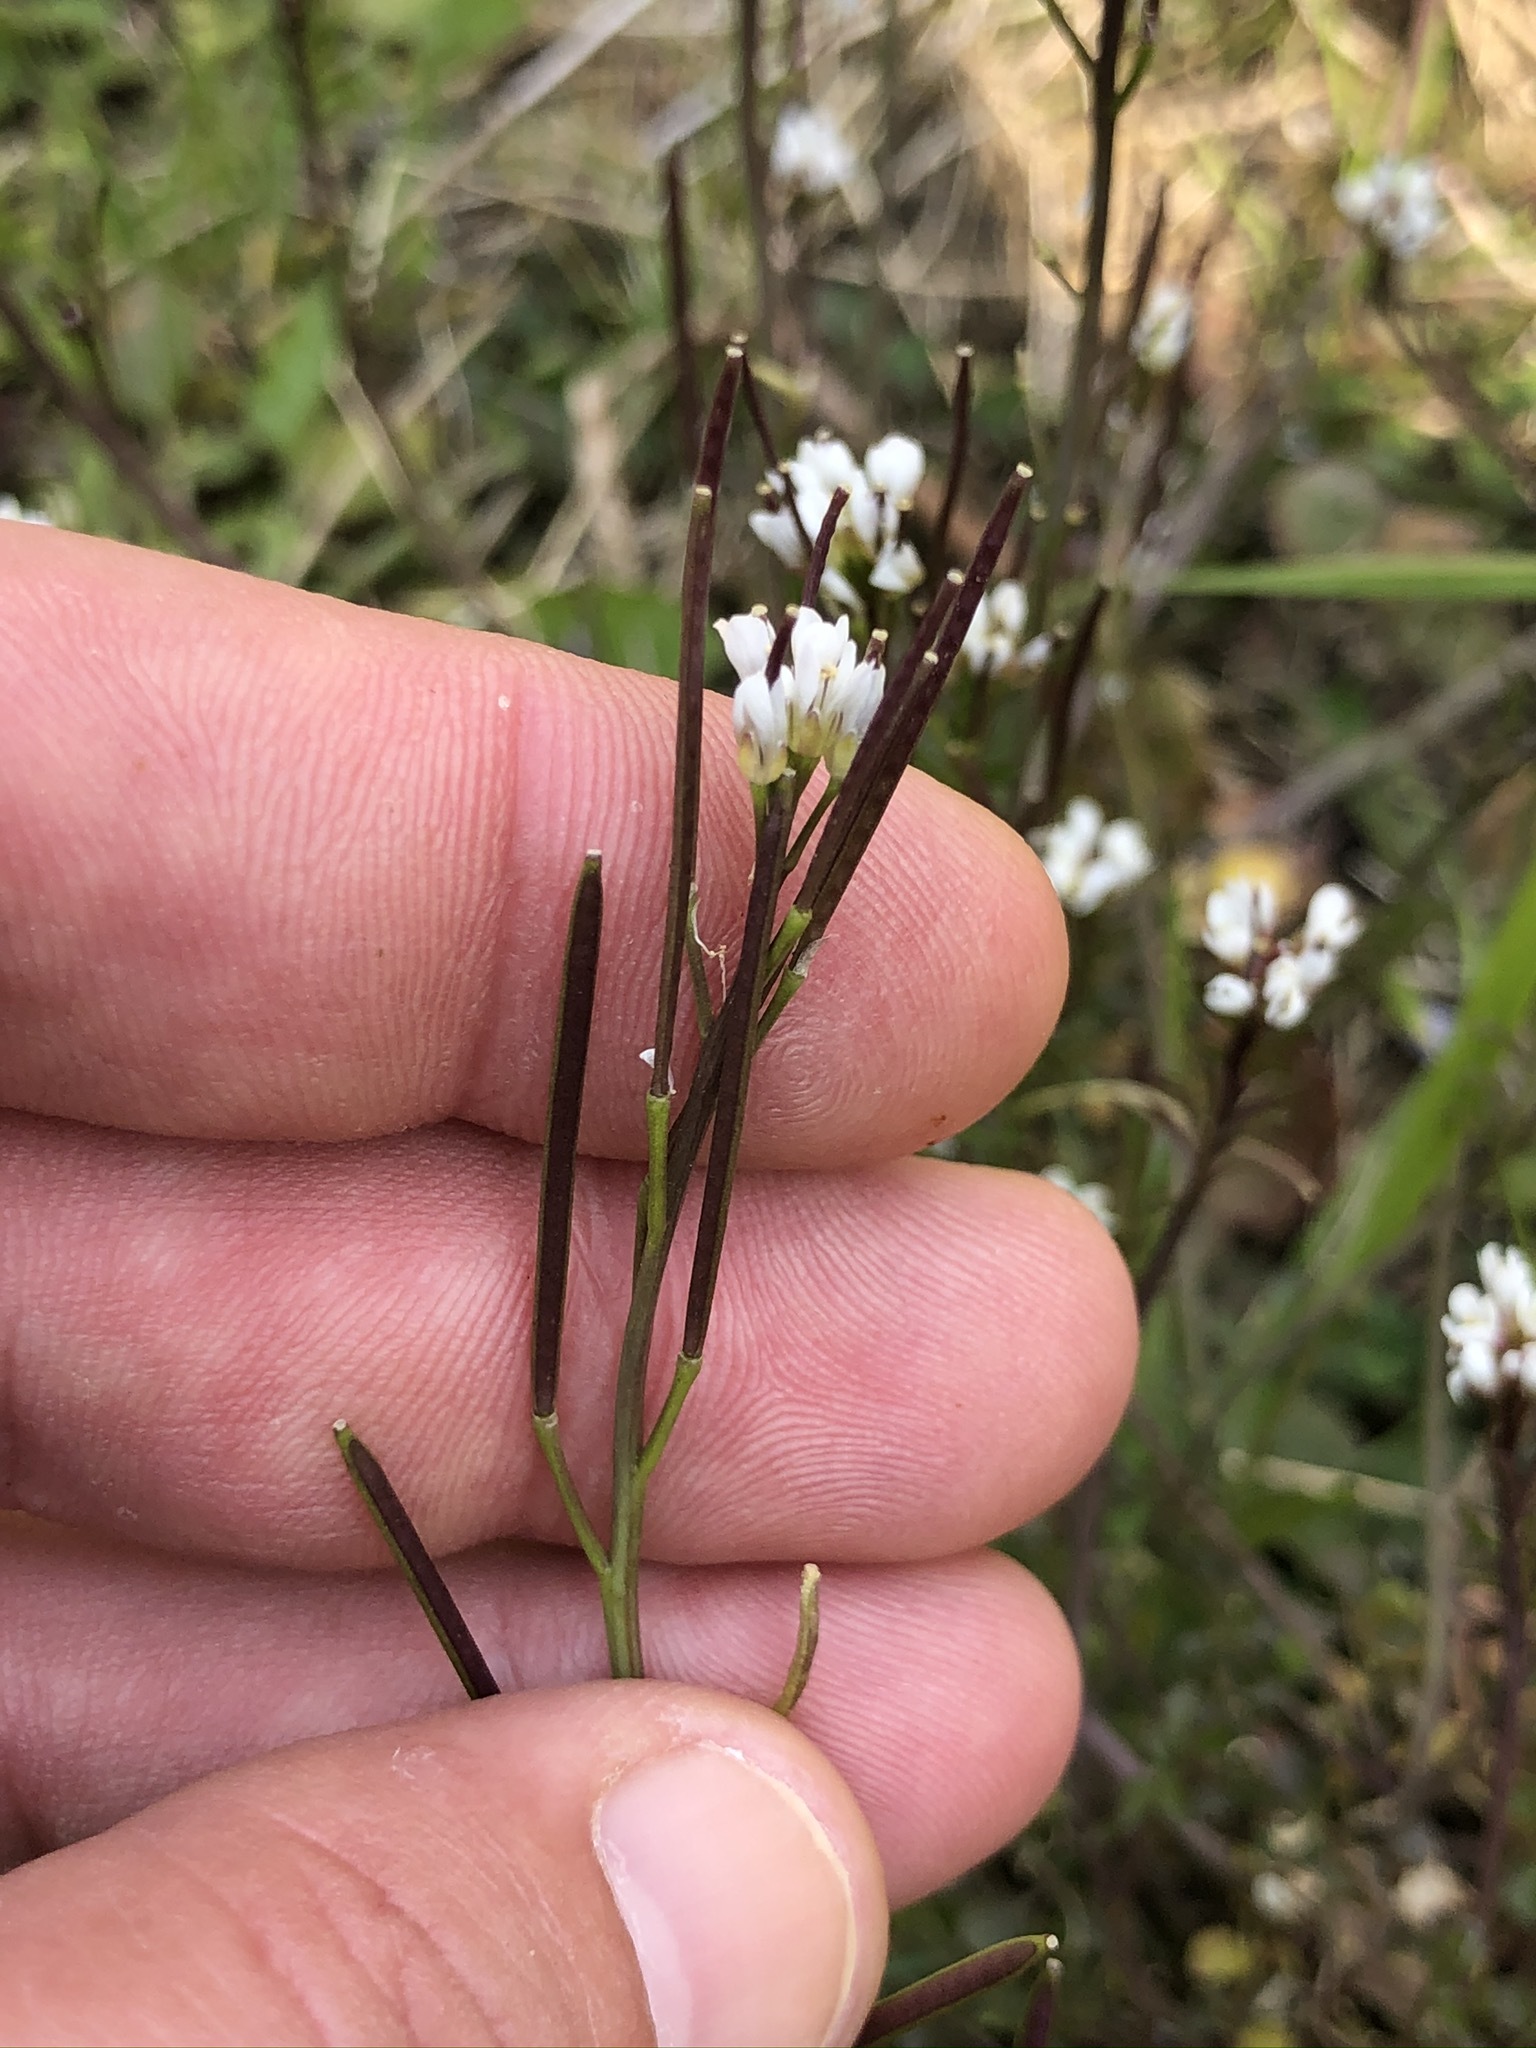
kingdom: Plantae
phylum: Tracheophyta
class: Magnoliopsida
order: Brassicales
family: Brassicaceae
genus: Cardamine
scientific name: Cardamine hirsuta
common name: Hairy bittercress
